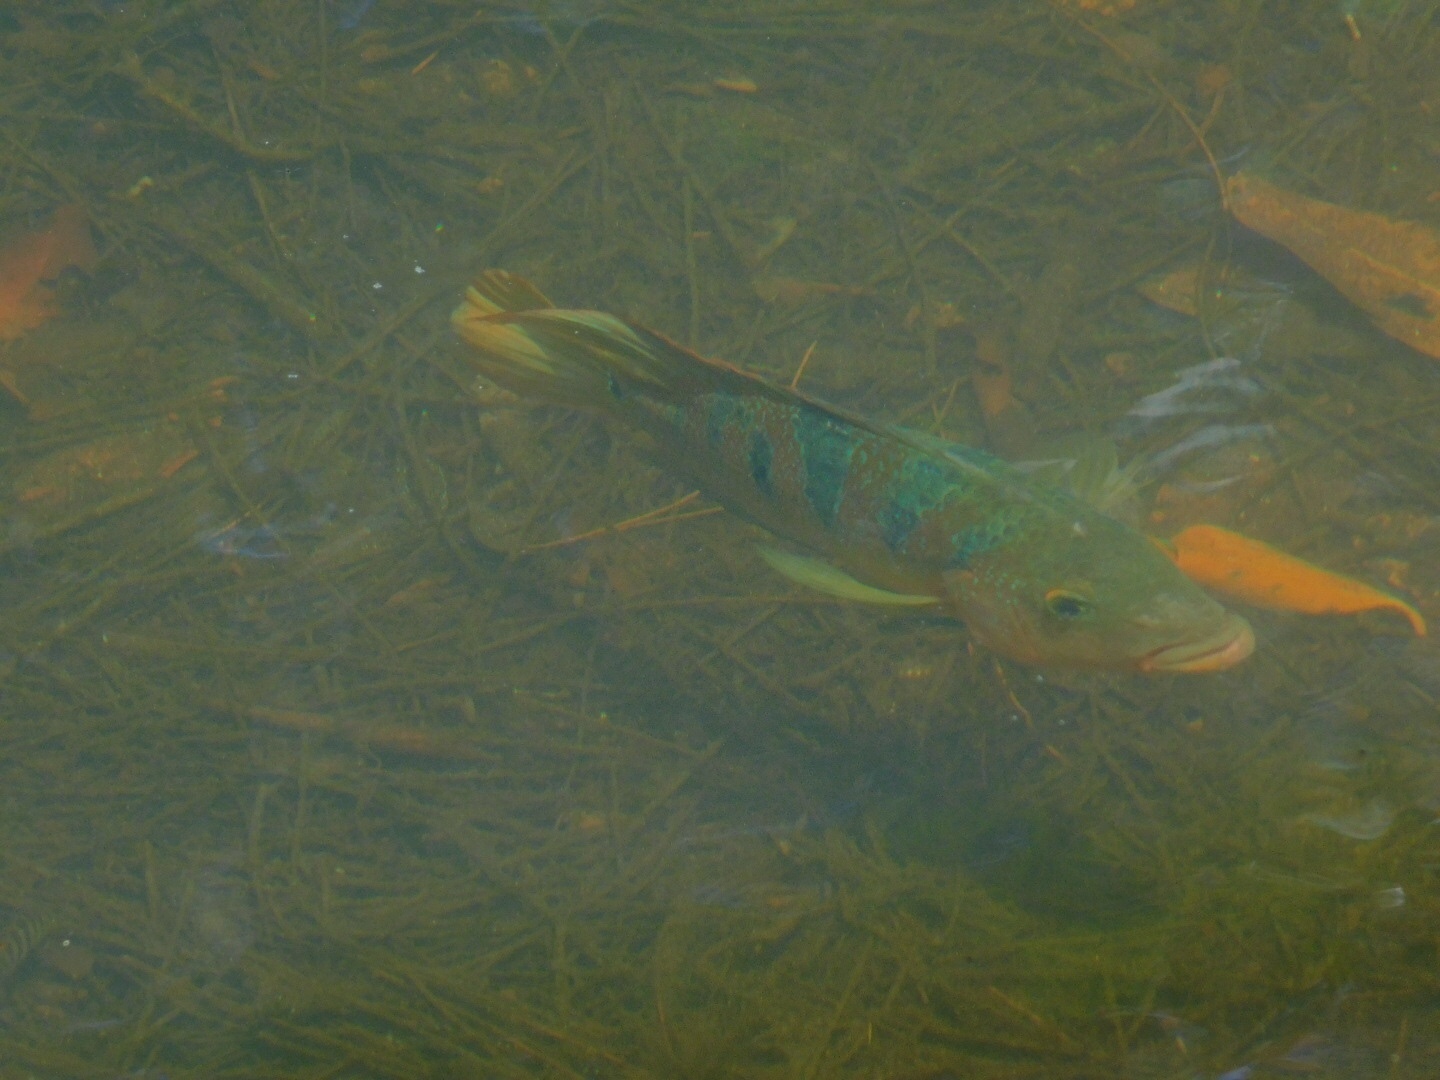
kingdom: Animalia
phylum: Chordata
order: Perciformes
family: Cichlidae
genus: Mayaheros
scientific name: Mayaheros urophthalmus
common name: Mayan cichlid
